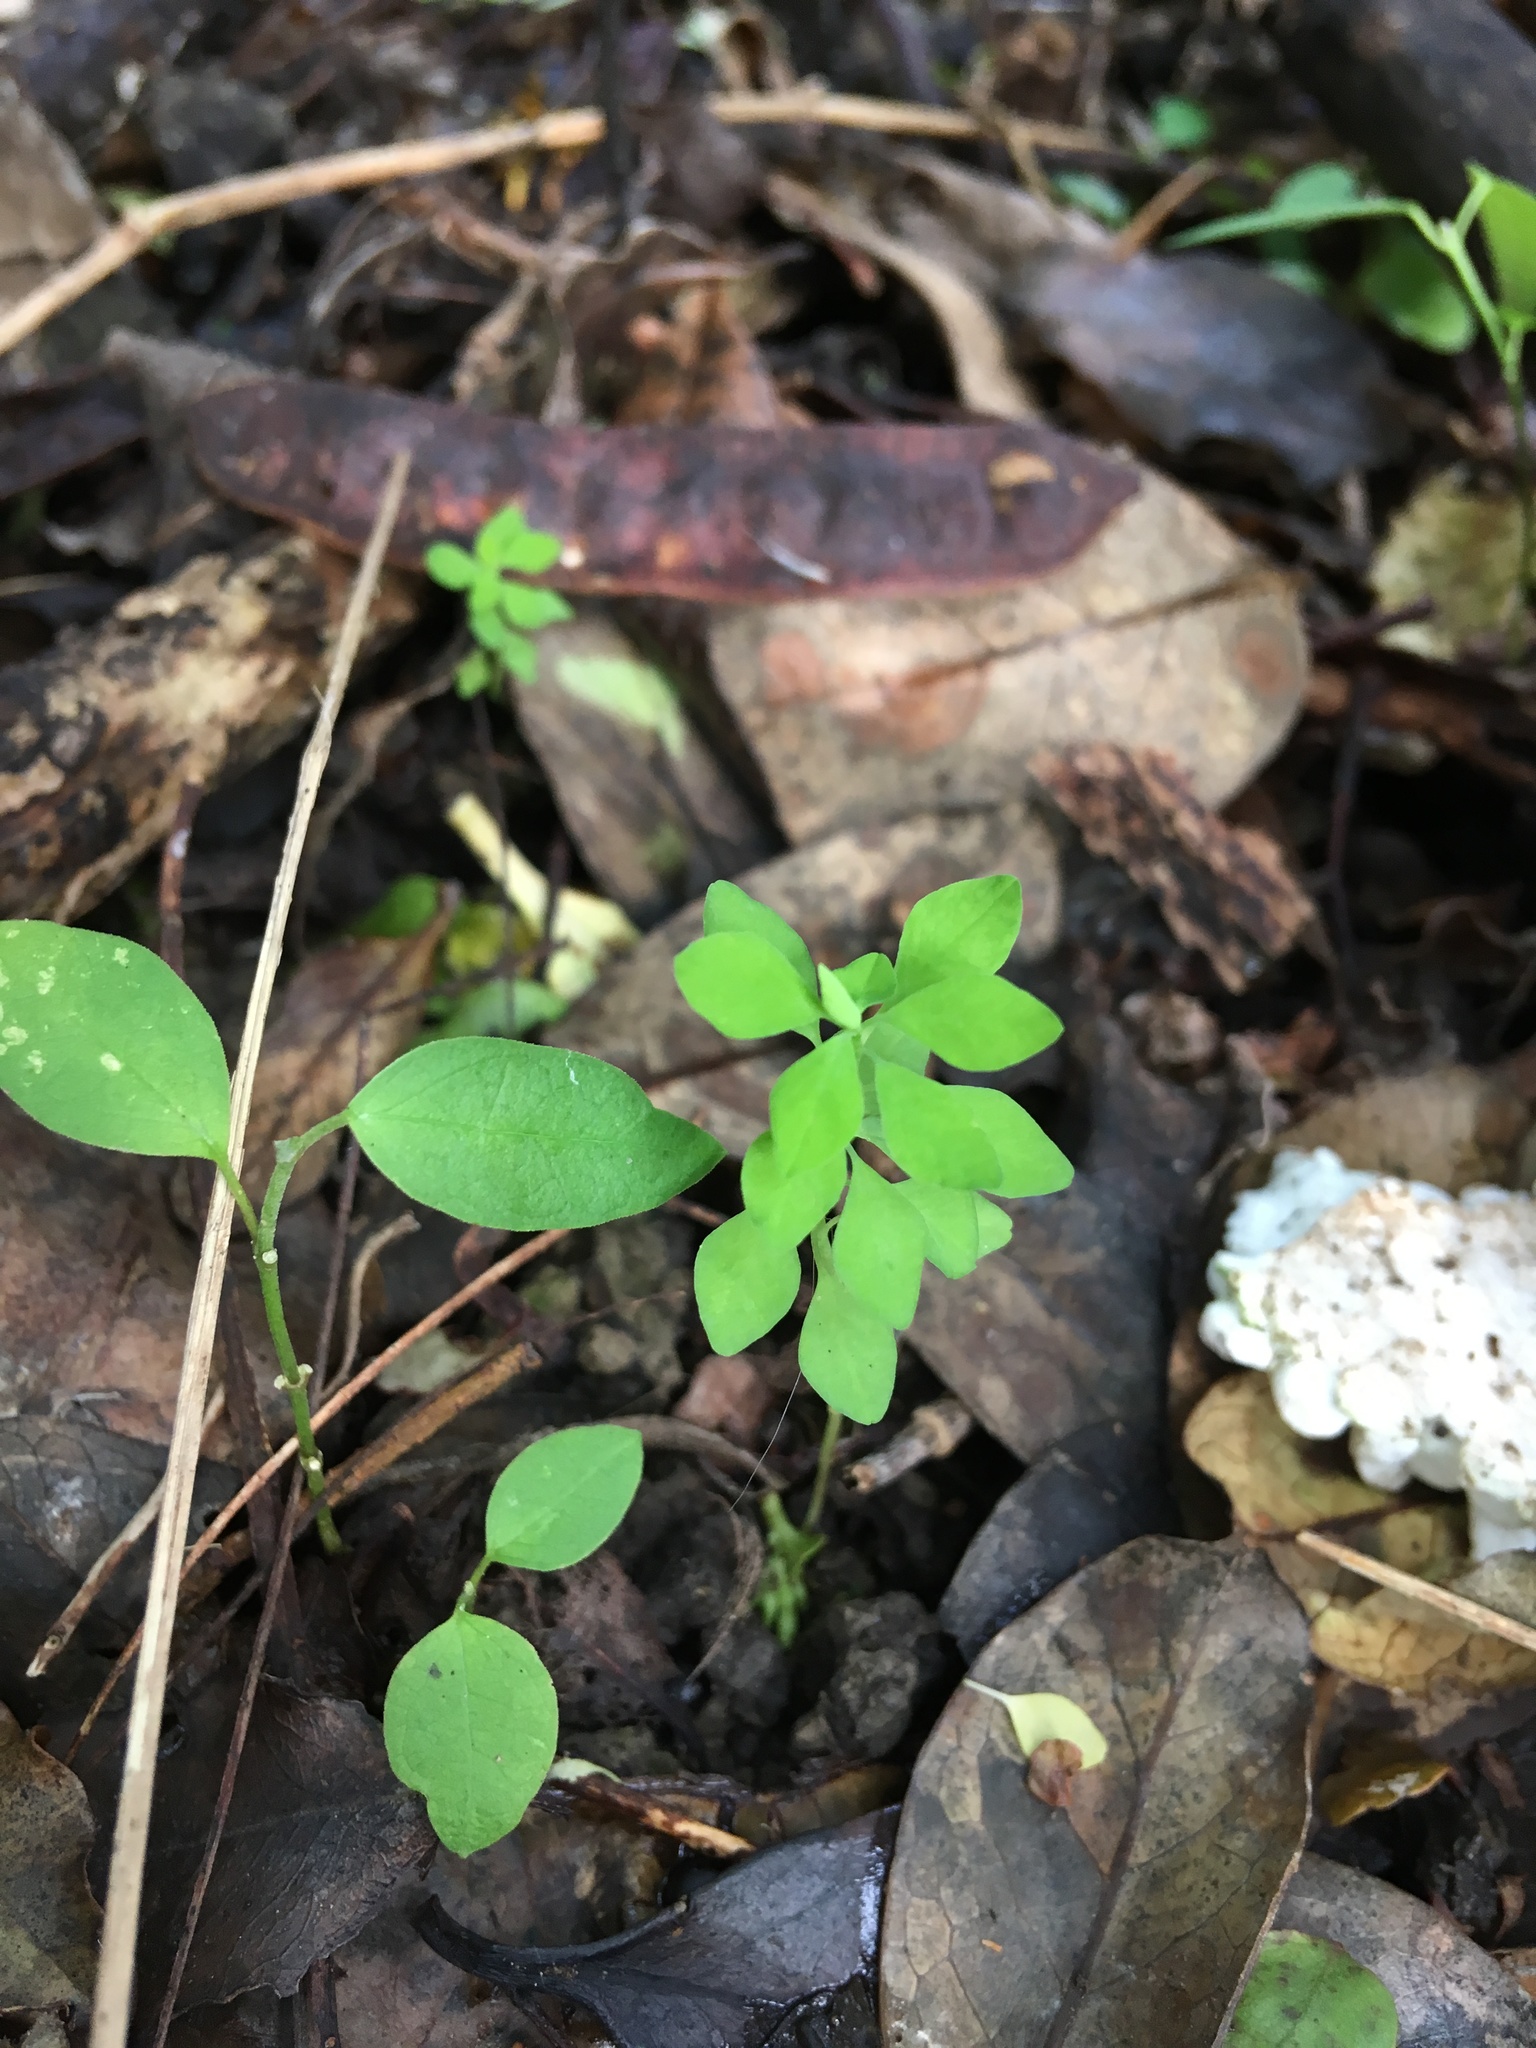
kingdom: Plantae
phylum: Tracheophyta
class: Magnoliopsida
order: Gentianales
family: Apocynaceae
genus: Araujia
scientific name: Araujia sericifera
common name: White bladderflower
